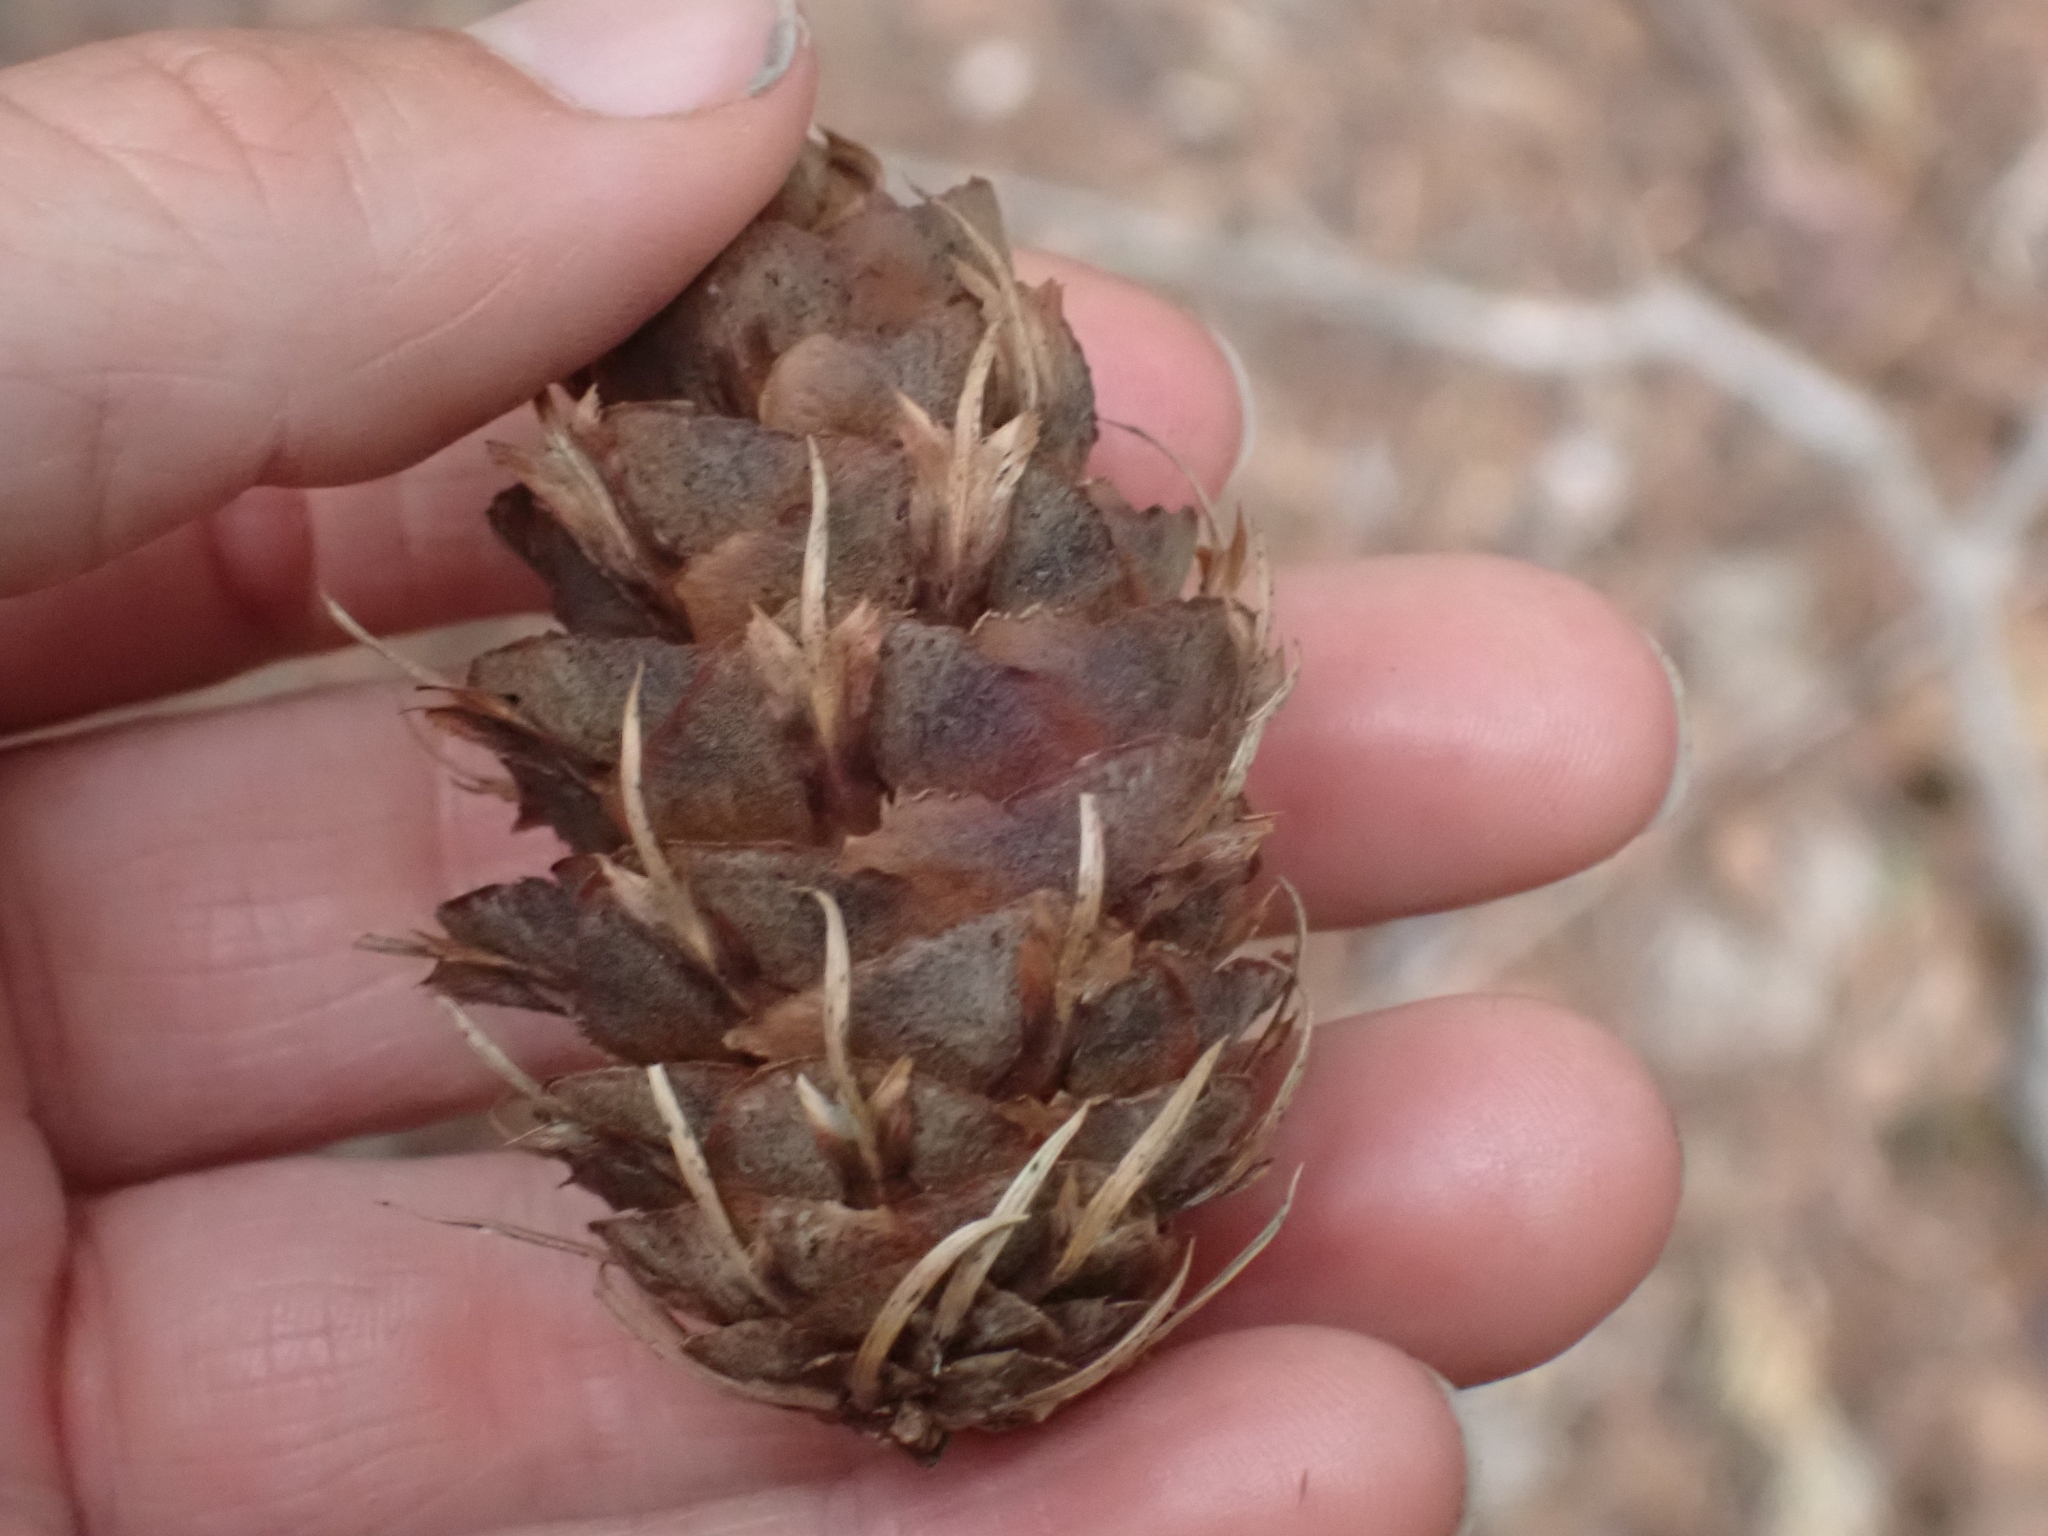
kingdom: Plantae
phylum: Tracheophyta
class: Pinopsida
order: Pinales
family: Pinaceae
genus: Pseudotsuga
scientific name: Pseudotsuga menziesii
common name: Douglas fir
